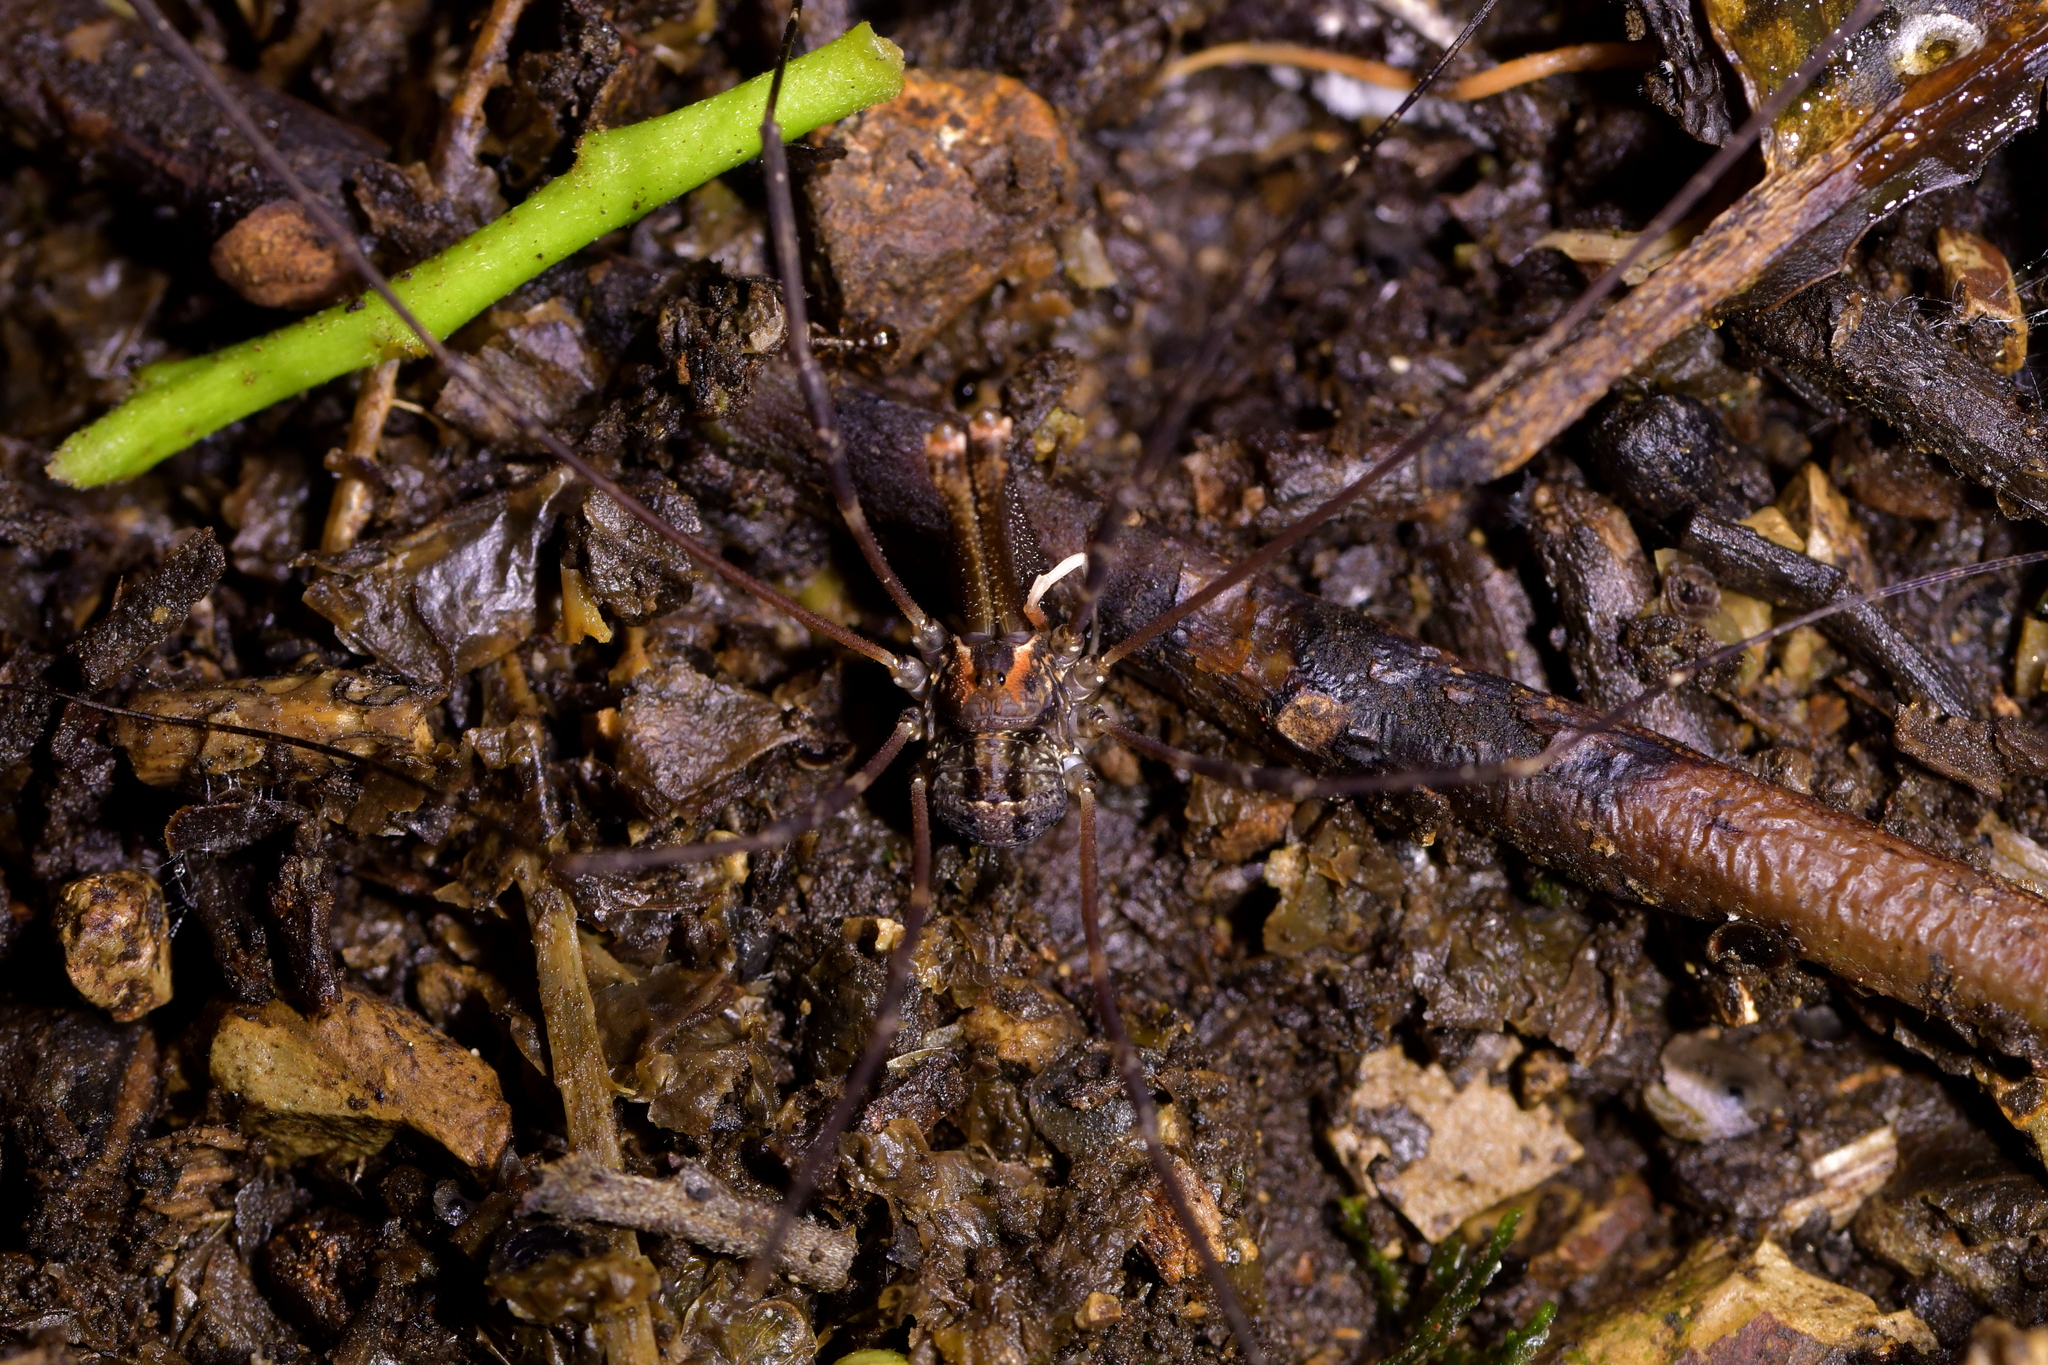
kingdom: Animalia
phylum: Arthropoda
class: Arachnida
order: Opiliones
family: Neopilionidae
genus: Forsteropsalis
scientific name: Forsteropsalis inconstans
